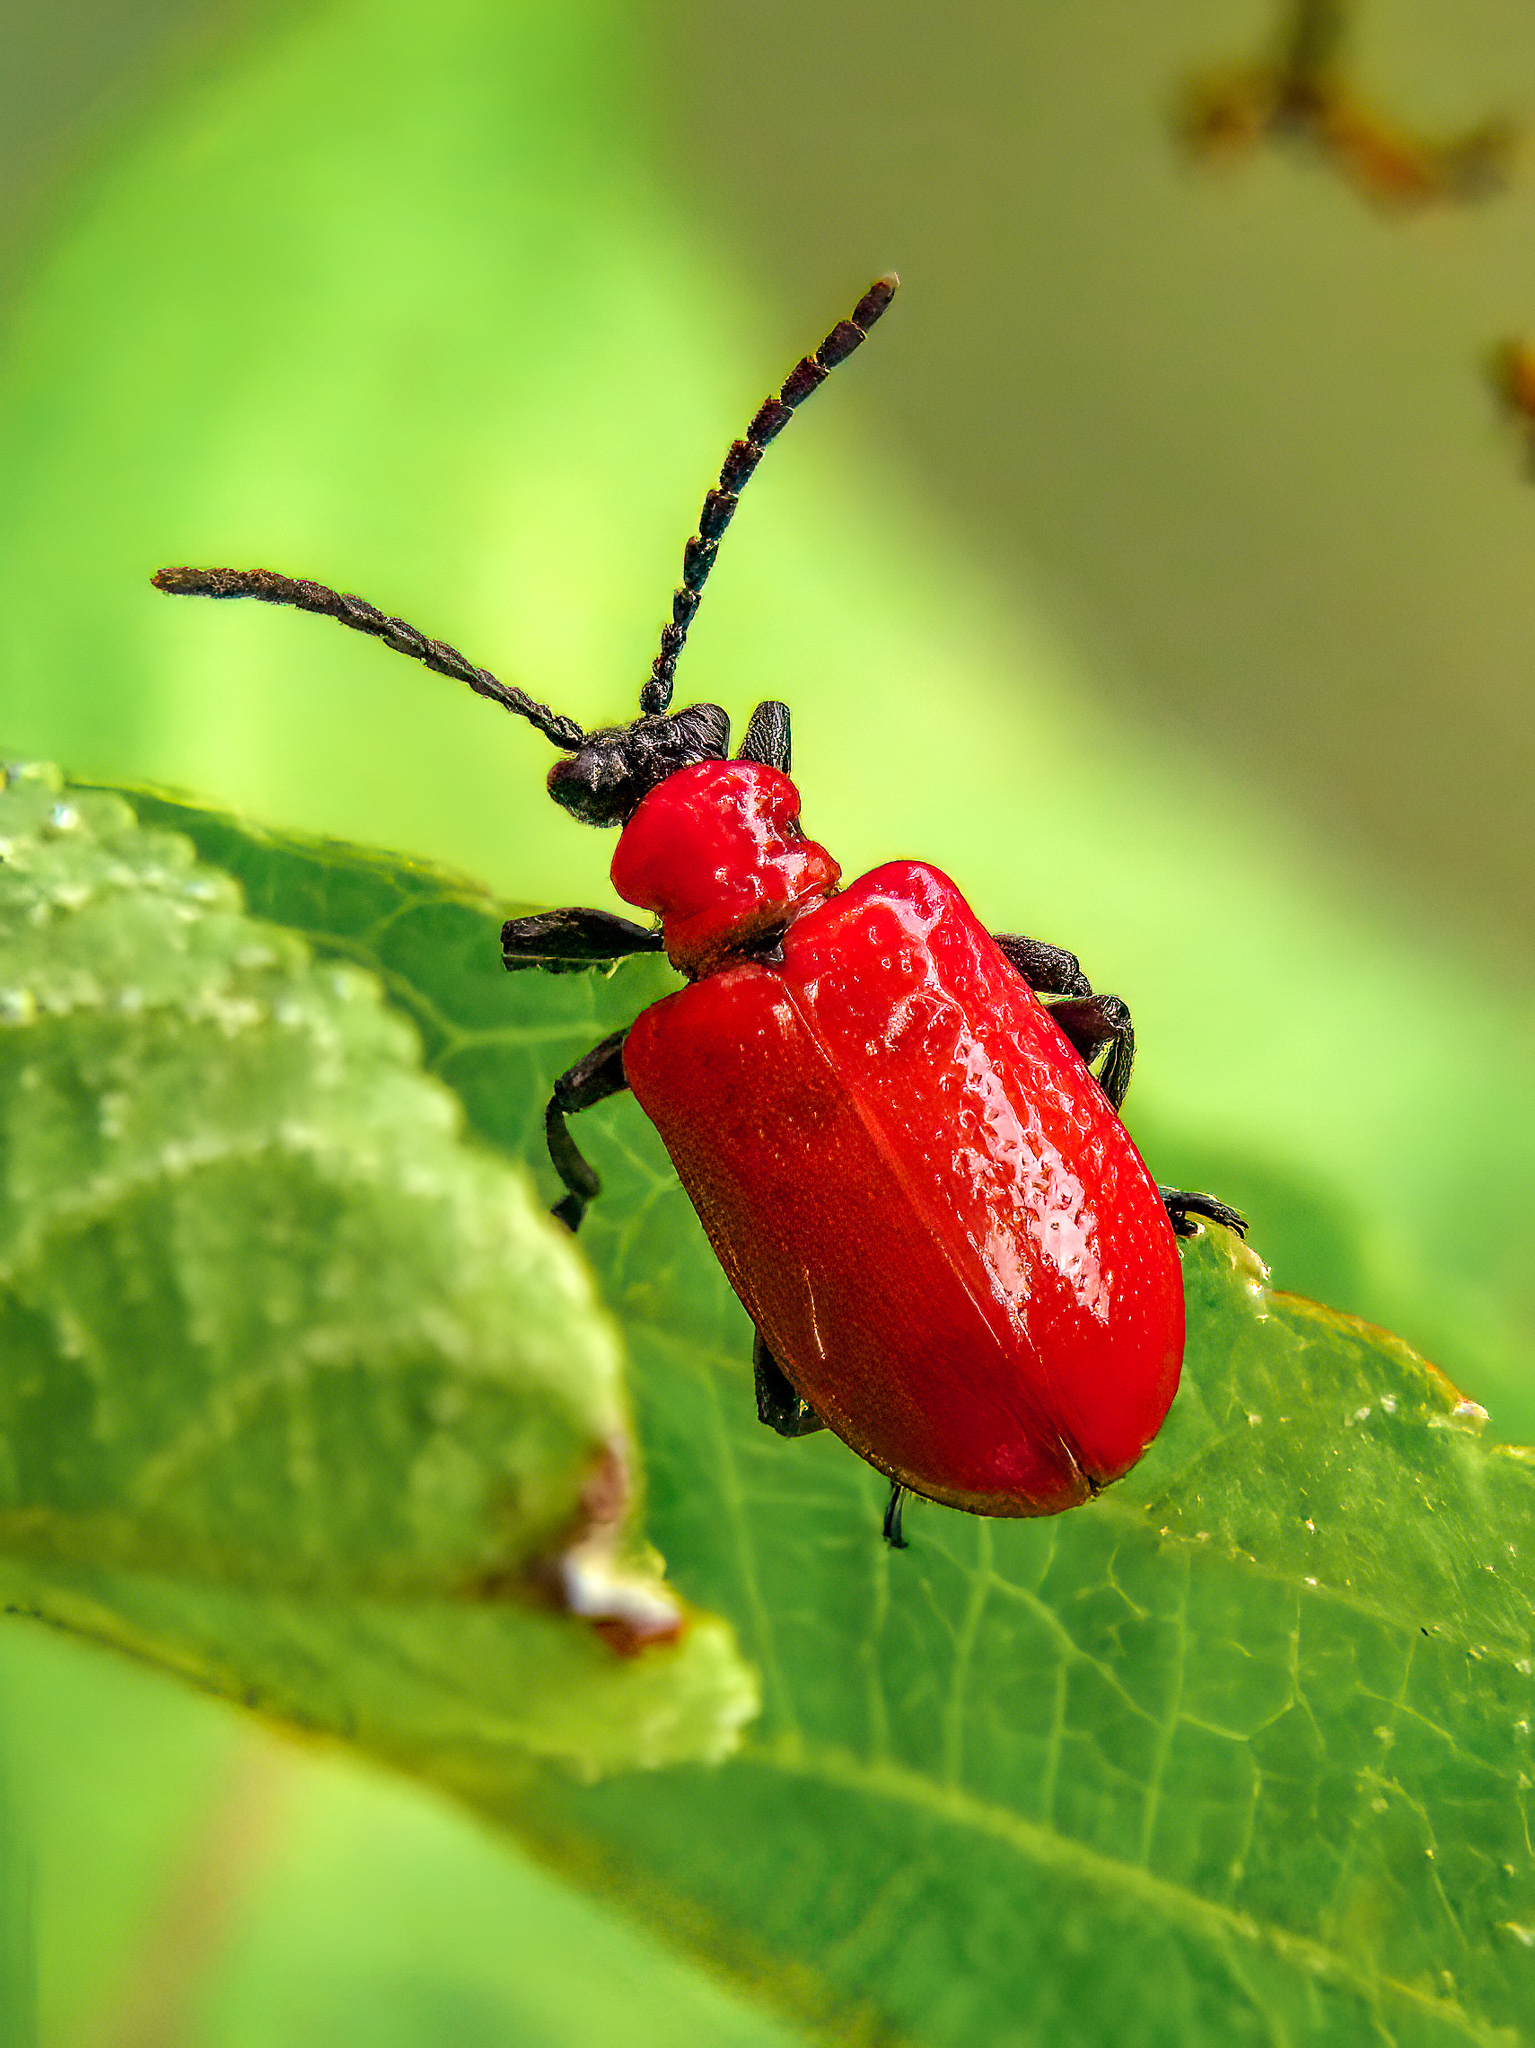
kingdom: Animalia
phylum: Arthropoda
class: Insecta
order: Coleoptera
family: Chrysomelidae
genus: Lilioceris
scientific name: Lilioceris lilii
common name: Lily beetle
